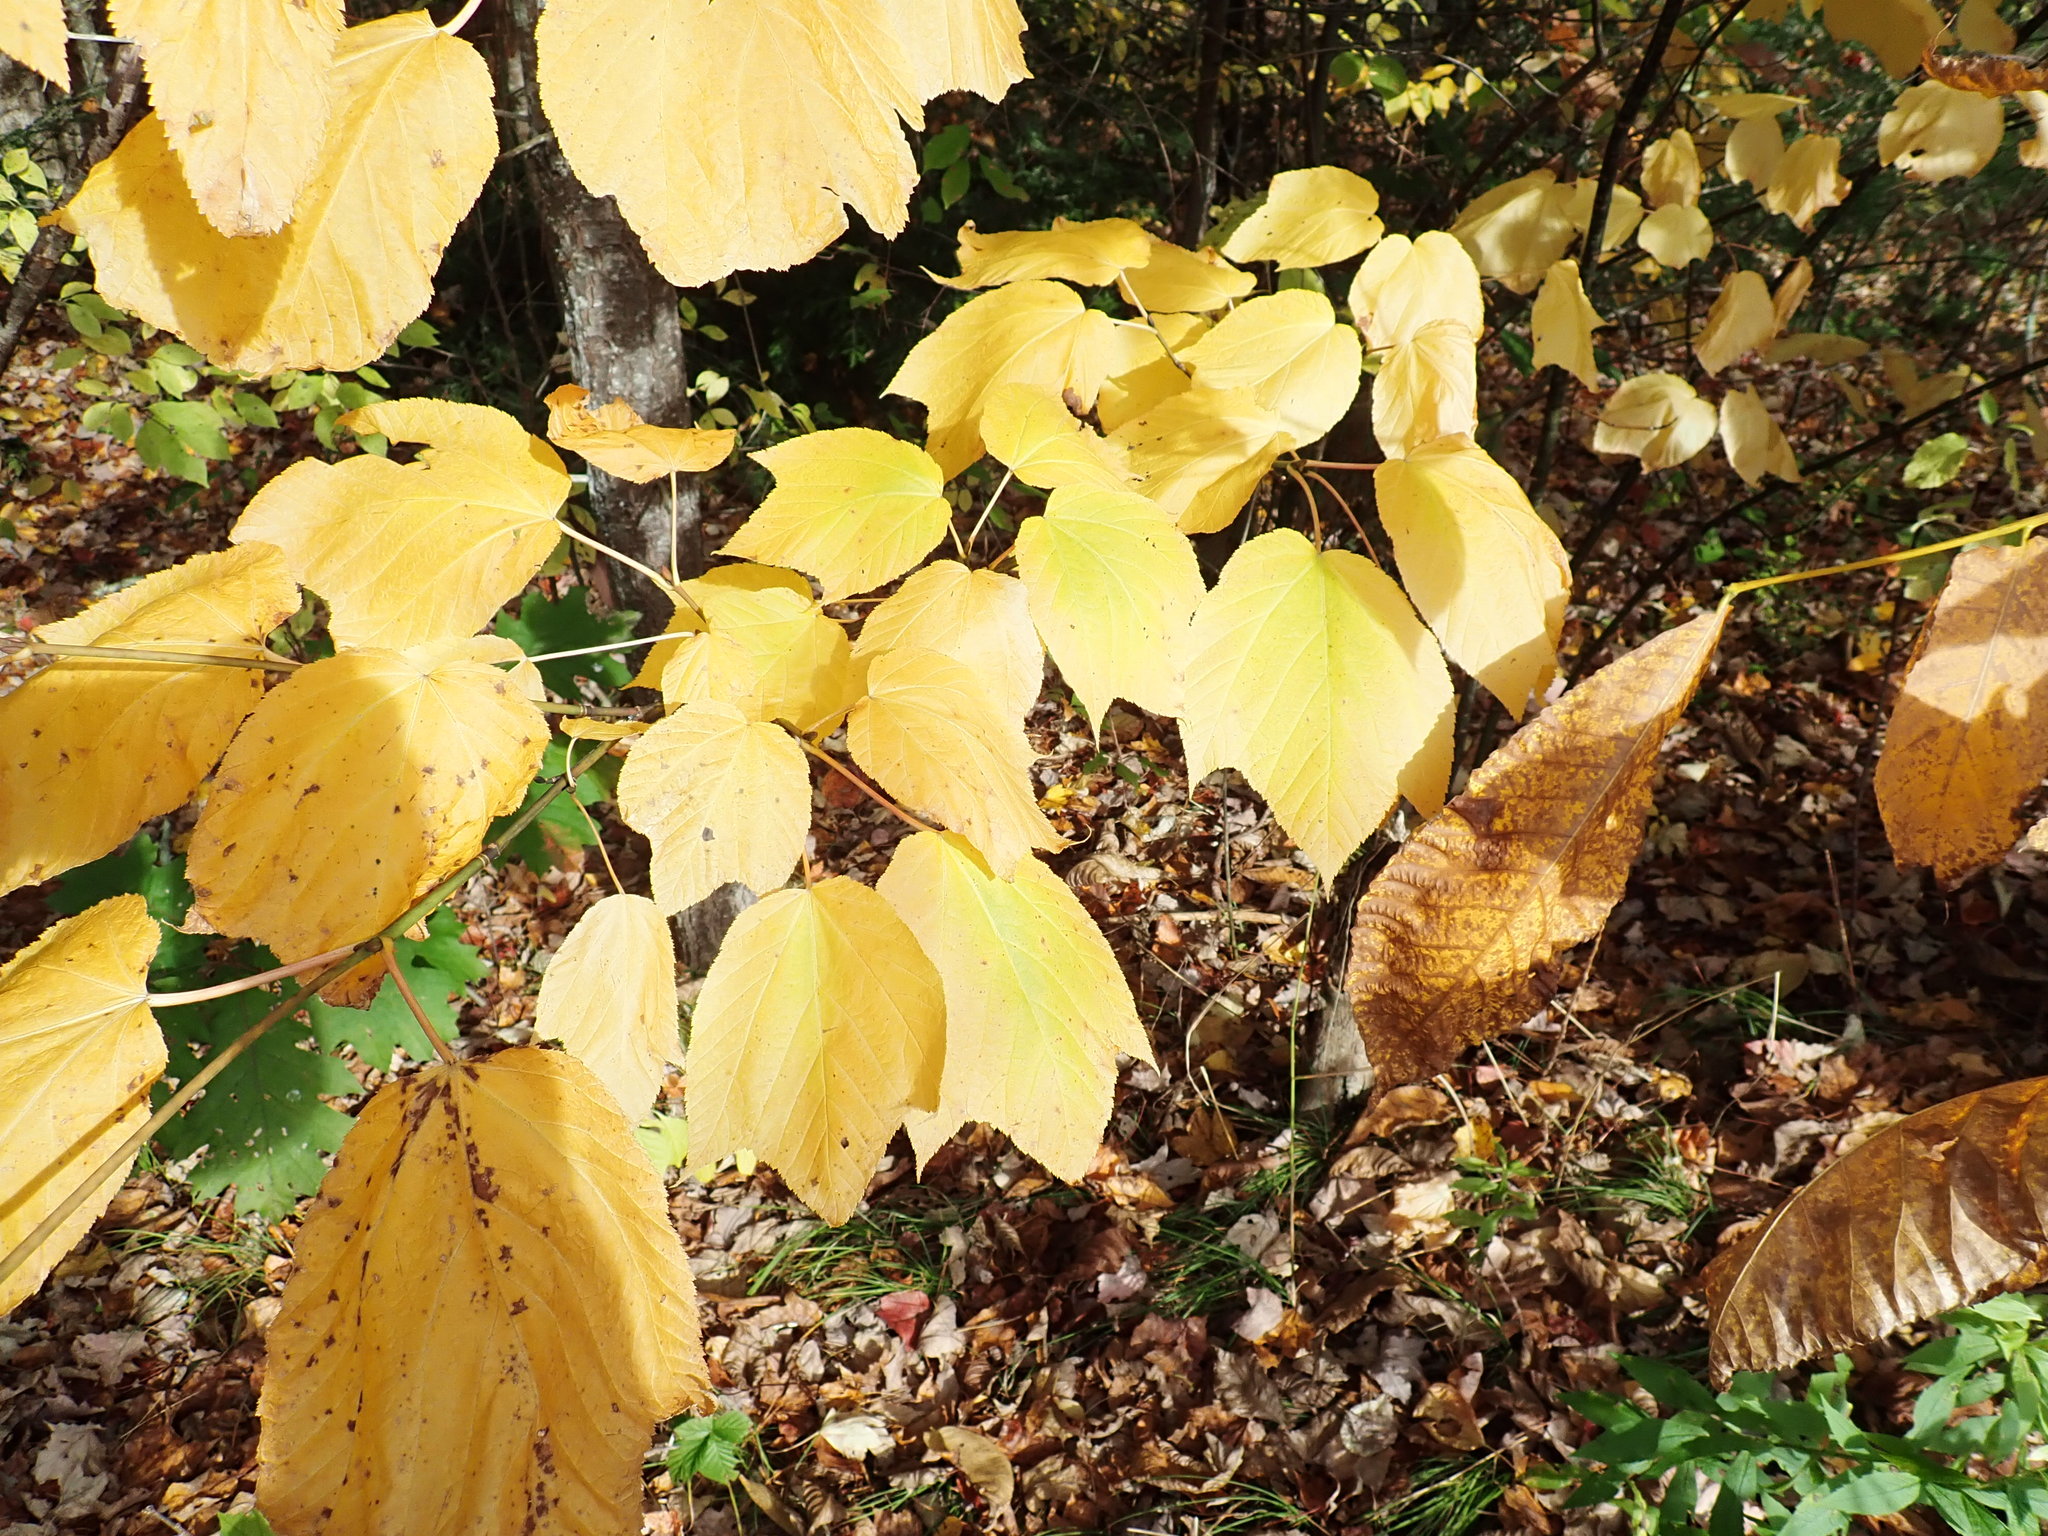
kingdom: Plantae
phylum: Tracheophyta
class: Magnoliopsida
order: Sapindales
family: Sapindaceae
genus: Acer
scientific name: Acer pensylvanicum
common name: Moosewood
